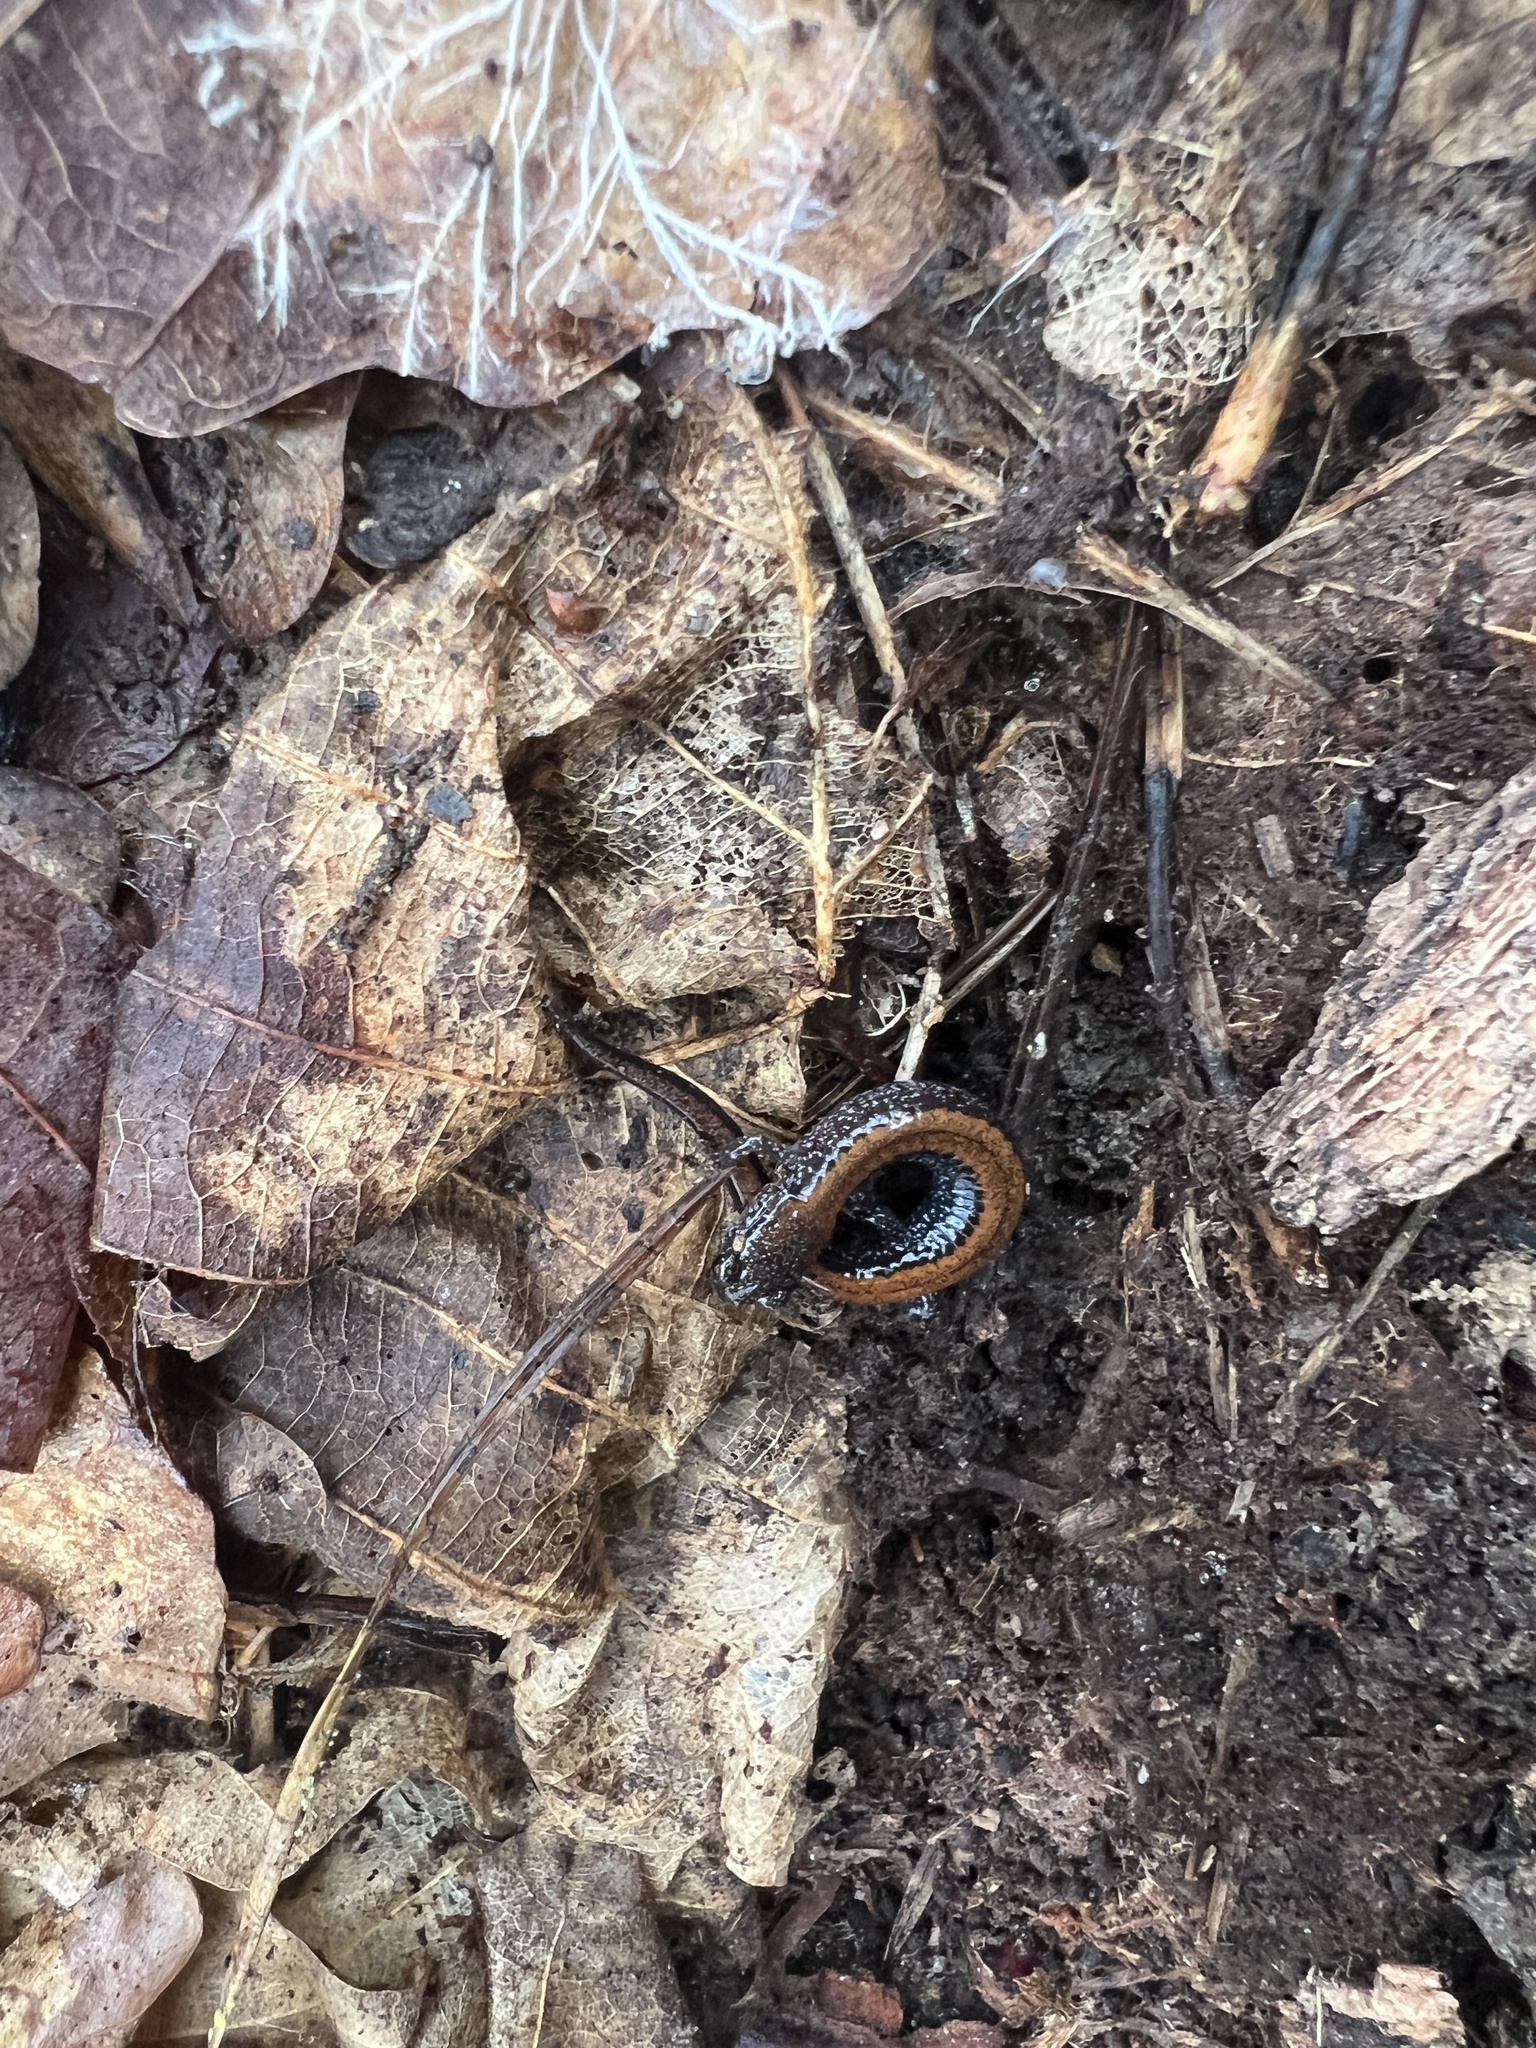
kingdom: Animalia
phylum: Chordata
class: Amphibia
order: Caudata
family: Plethodontidae
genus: Plethodon
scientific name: Plethodon cinereus
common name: Redback salamander
